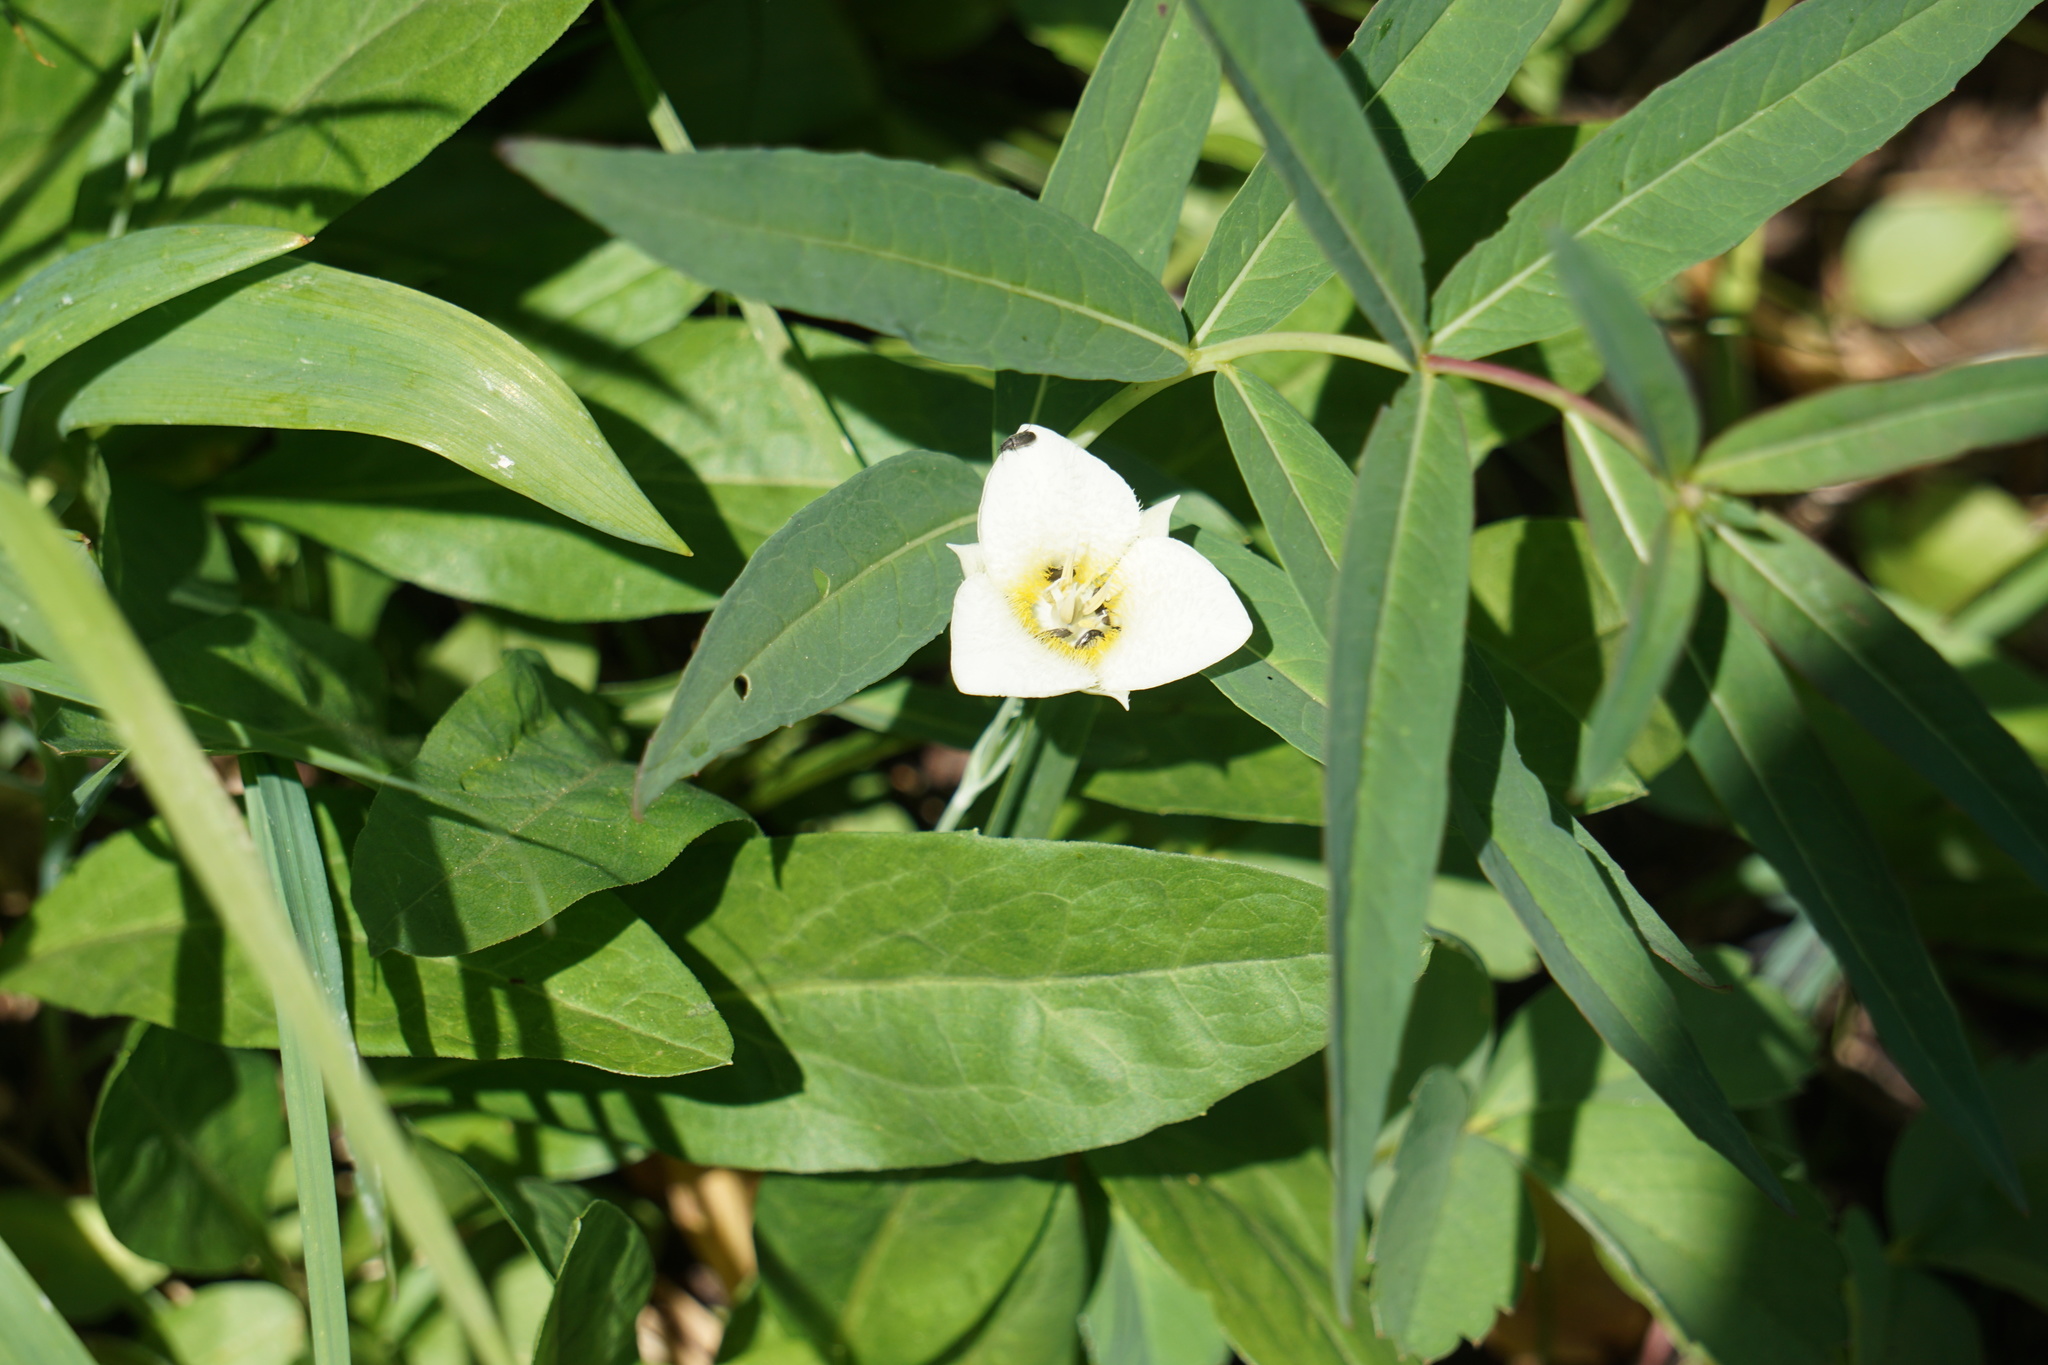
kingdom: Plantae
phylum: Tracheophyta
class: Liliopsida
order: Liliales
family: Liliaceae
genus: Calochortus
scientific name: Calochortus apiculatus
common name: Baker's mariposa lily
